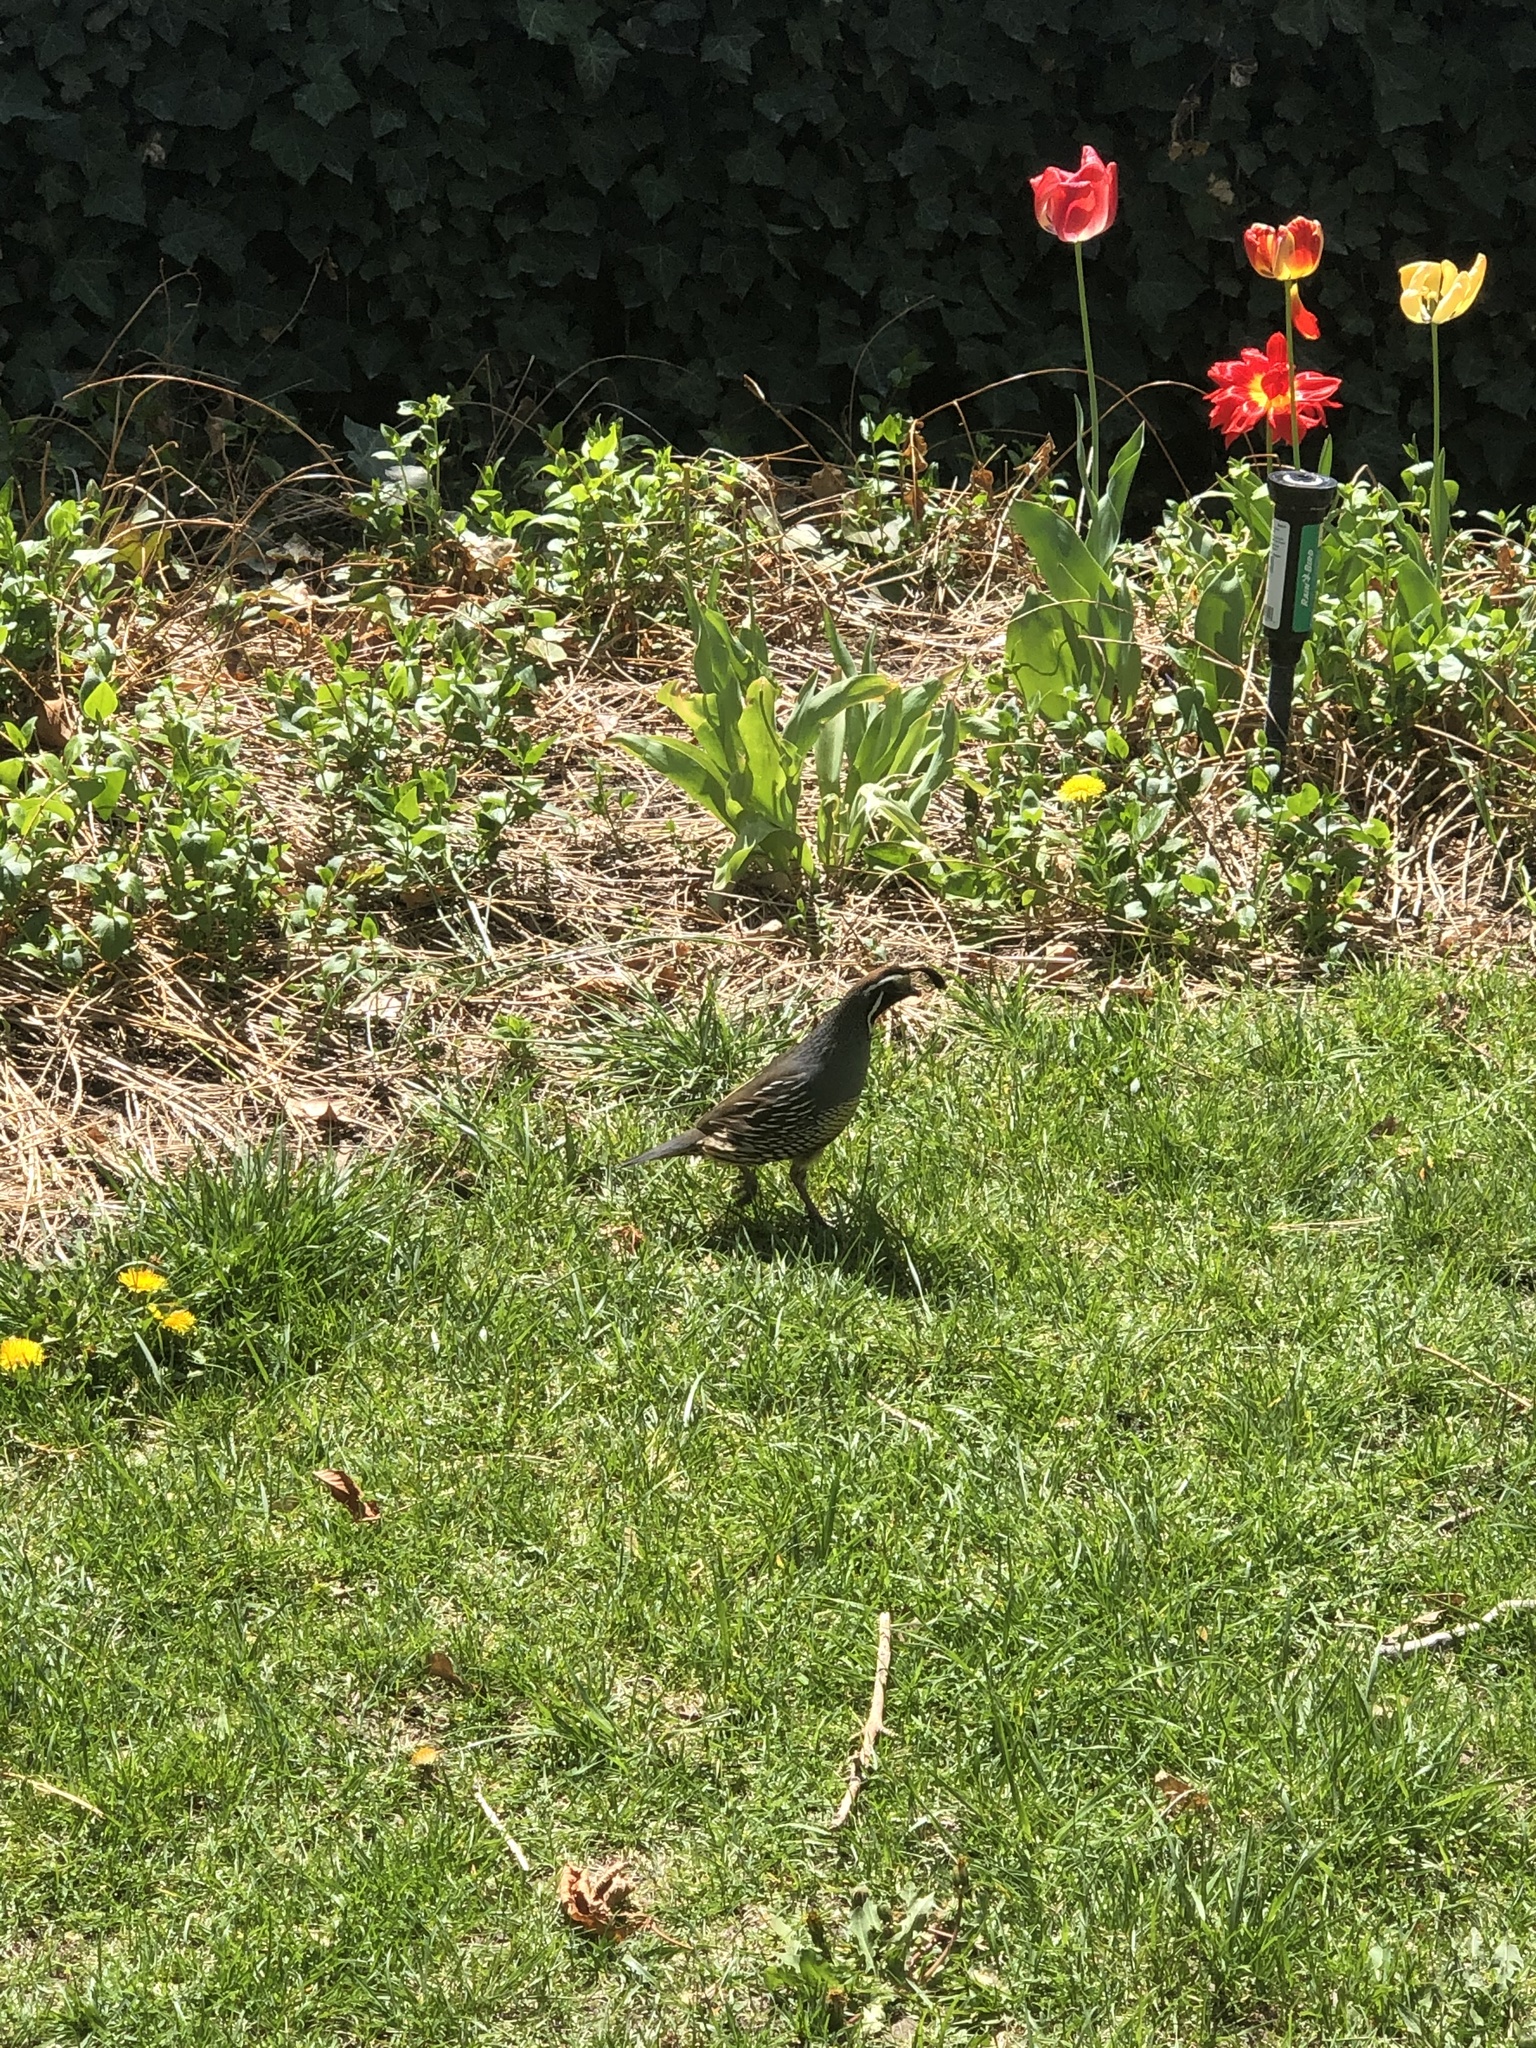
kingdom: Animalia
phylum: Chordata
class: Aves
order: Galliformes
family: Odontophoridae
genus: Callipepla
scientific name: Callipepla californica
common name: California quail
